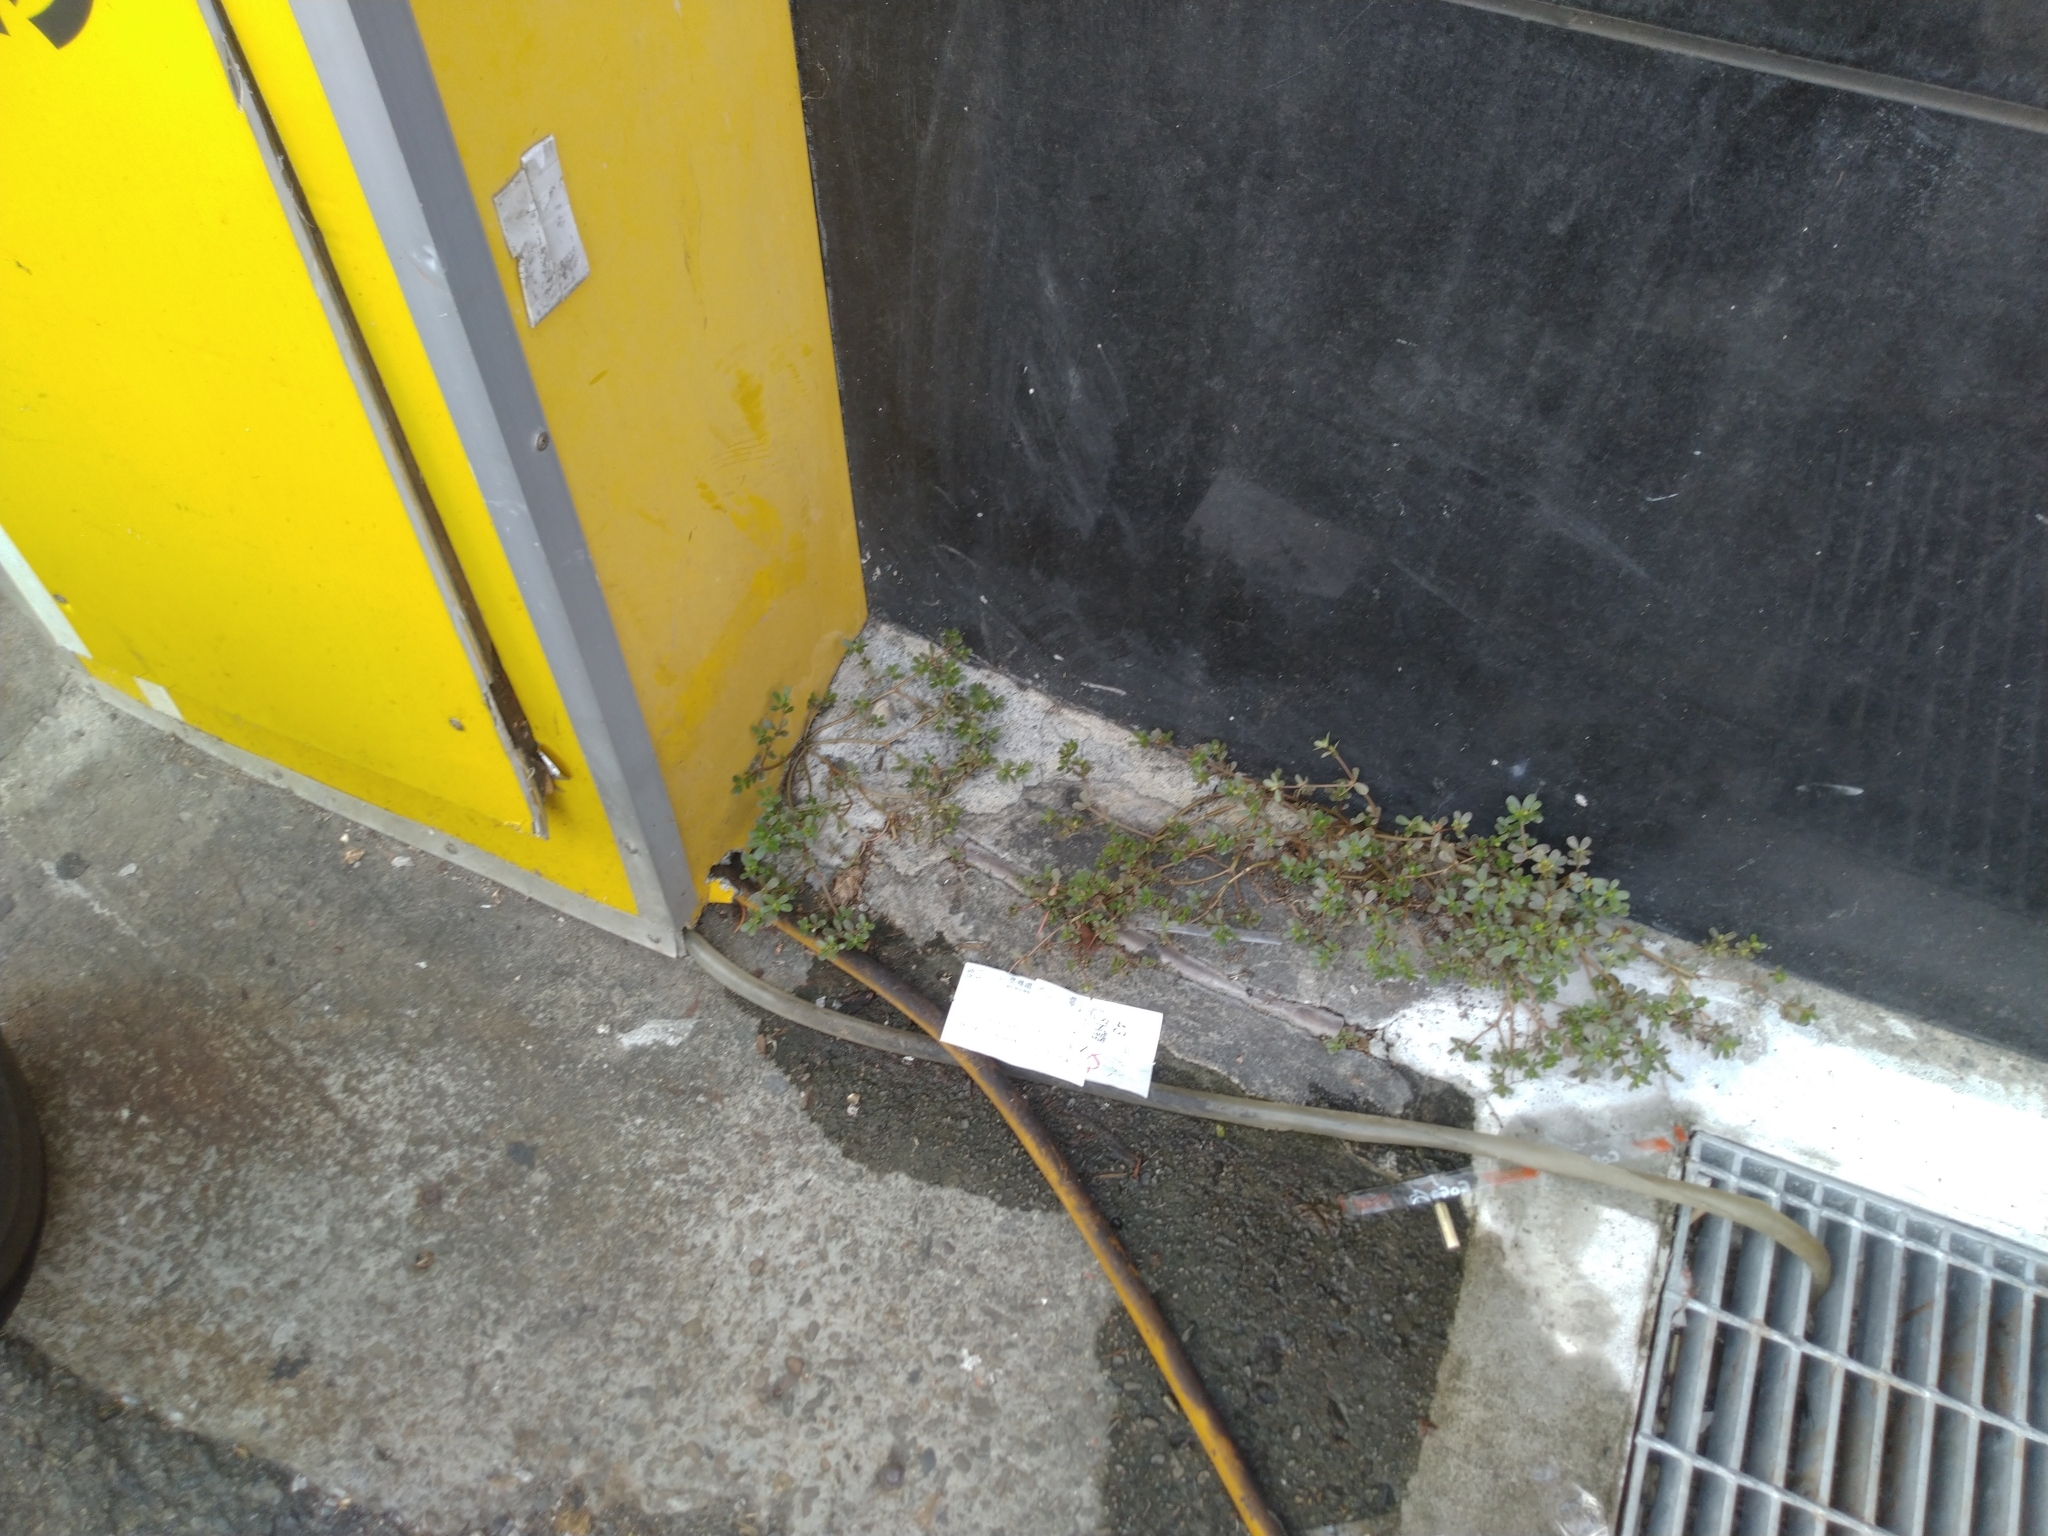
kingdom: Plantae
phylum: Tracheophyta
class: Magnoliopsida
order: Caryophyllales
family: Portulacaceae
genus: Portulaca
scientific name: Portulaca oleracea
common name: Common purslane
